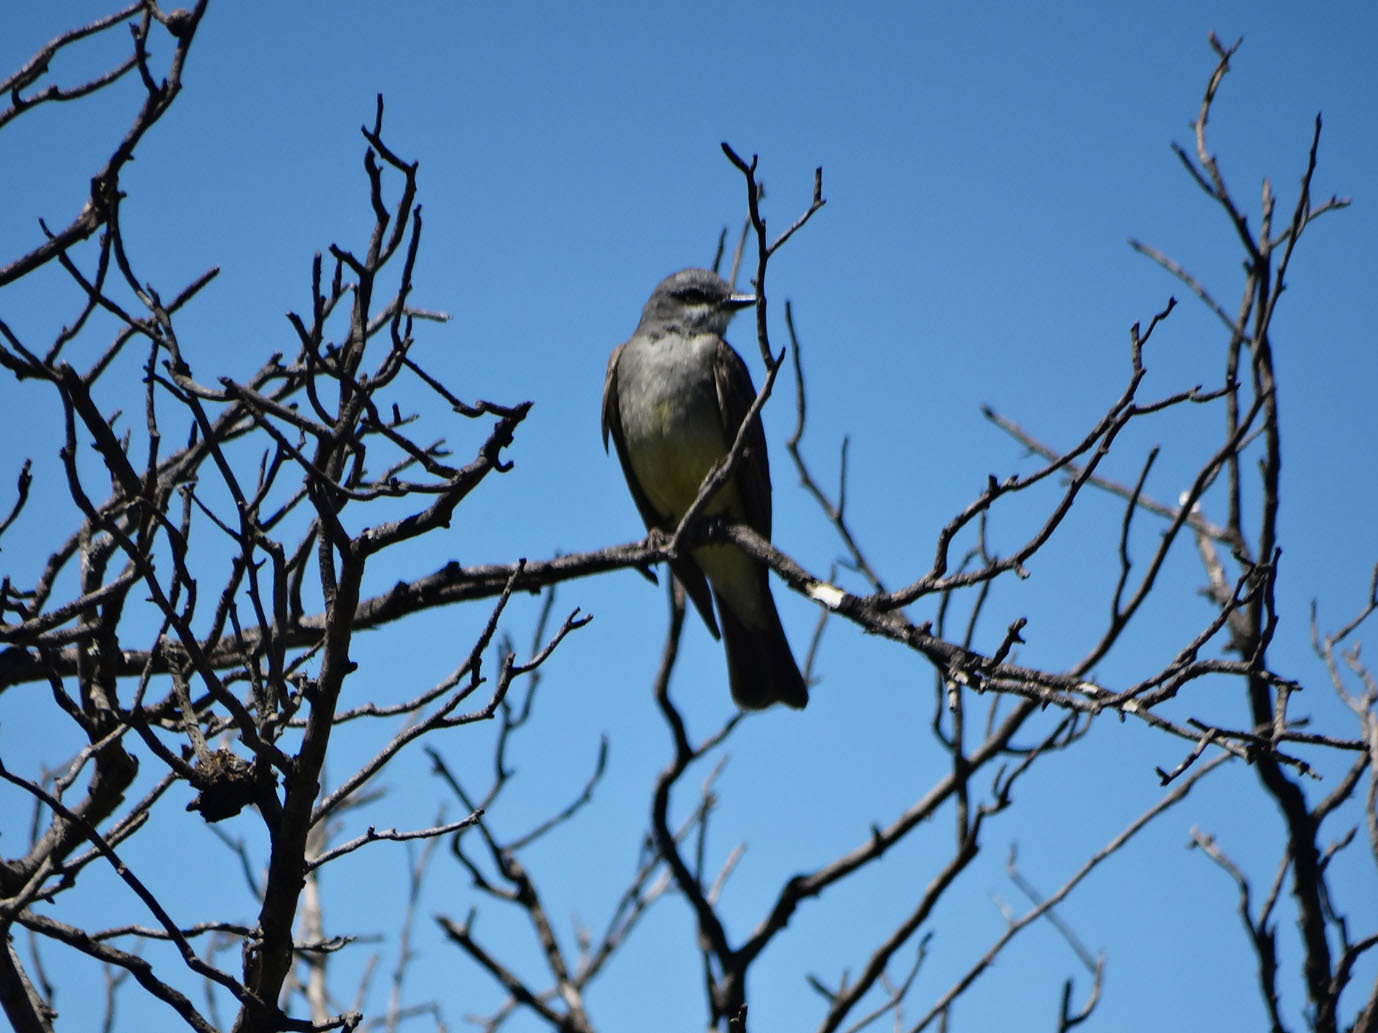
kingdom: Animalia
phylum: Chordata
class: Aves
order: Passeriformes
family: Tyrannidae
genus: Tyrannus
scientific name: Tyrannus vociferans
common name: Cassin's kingbird
